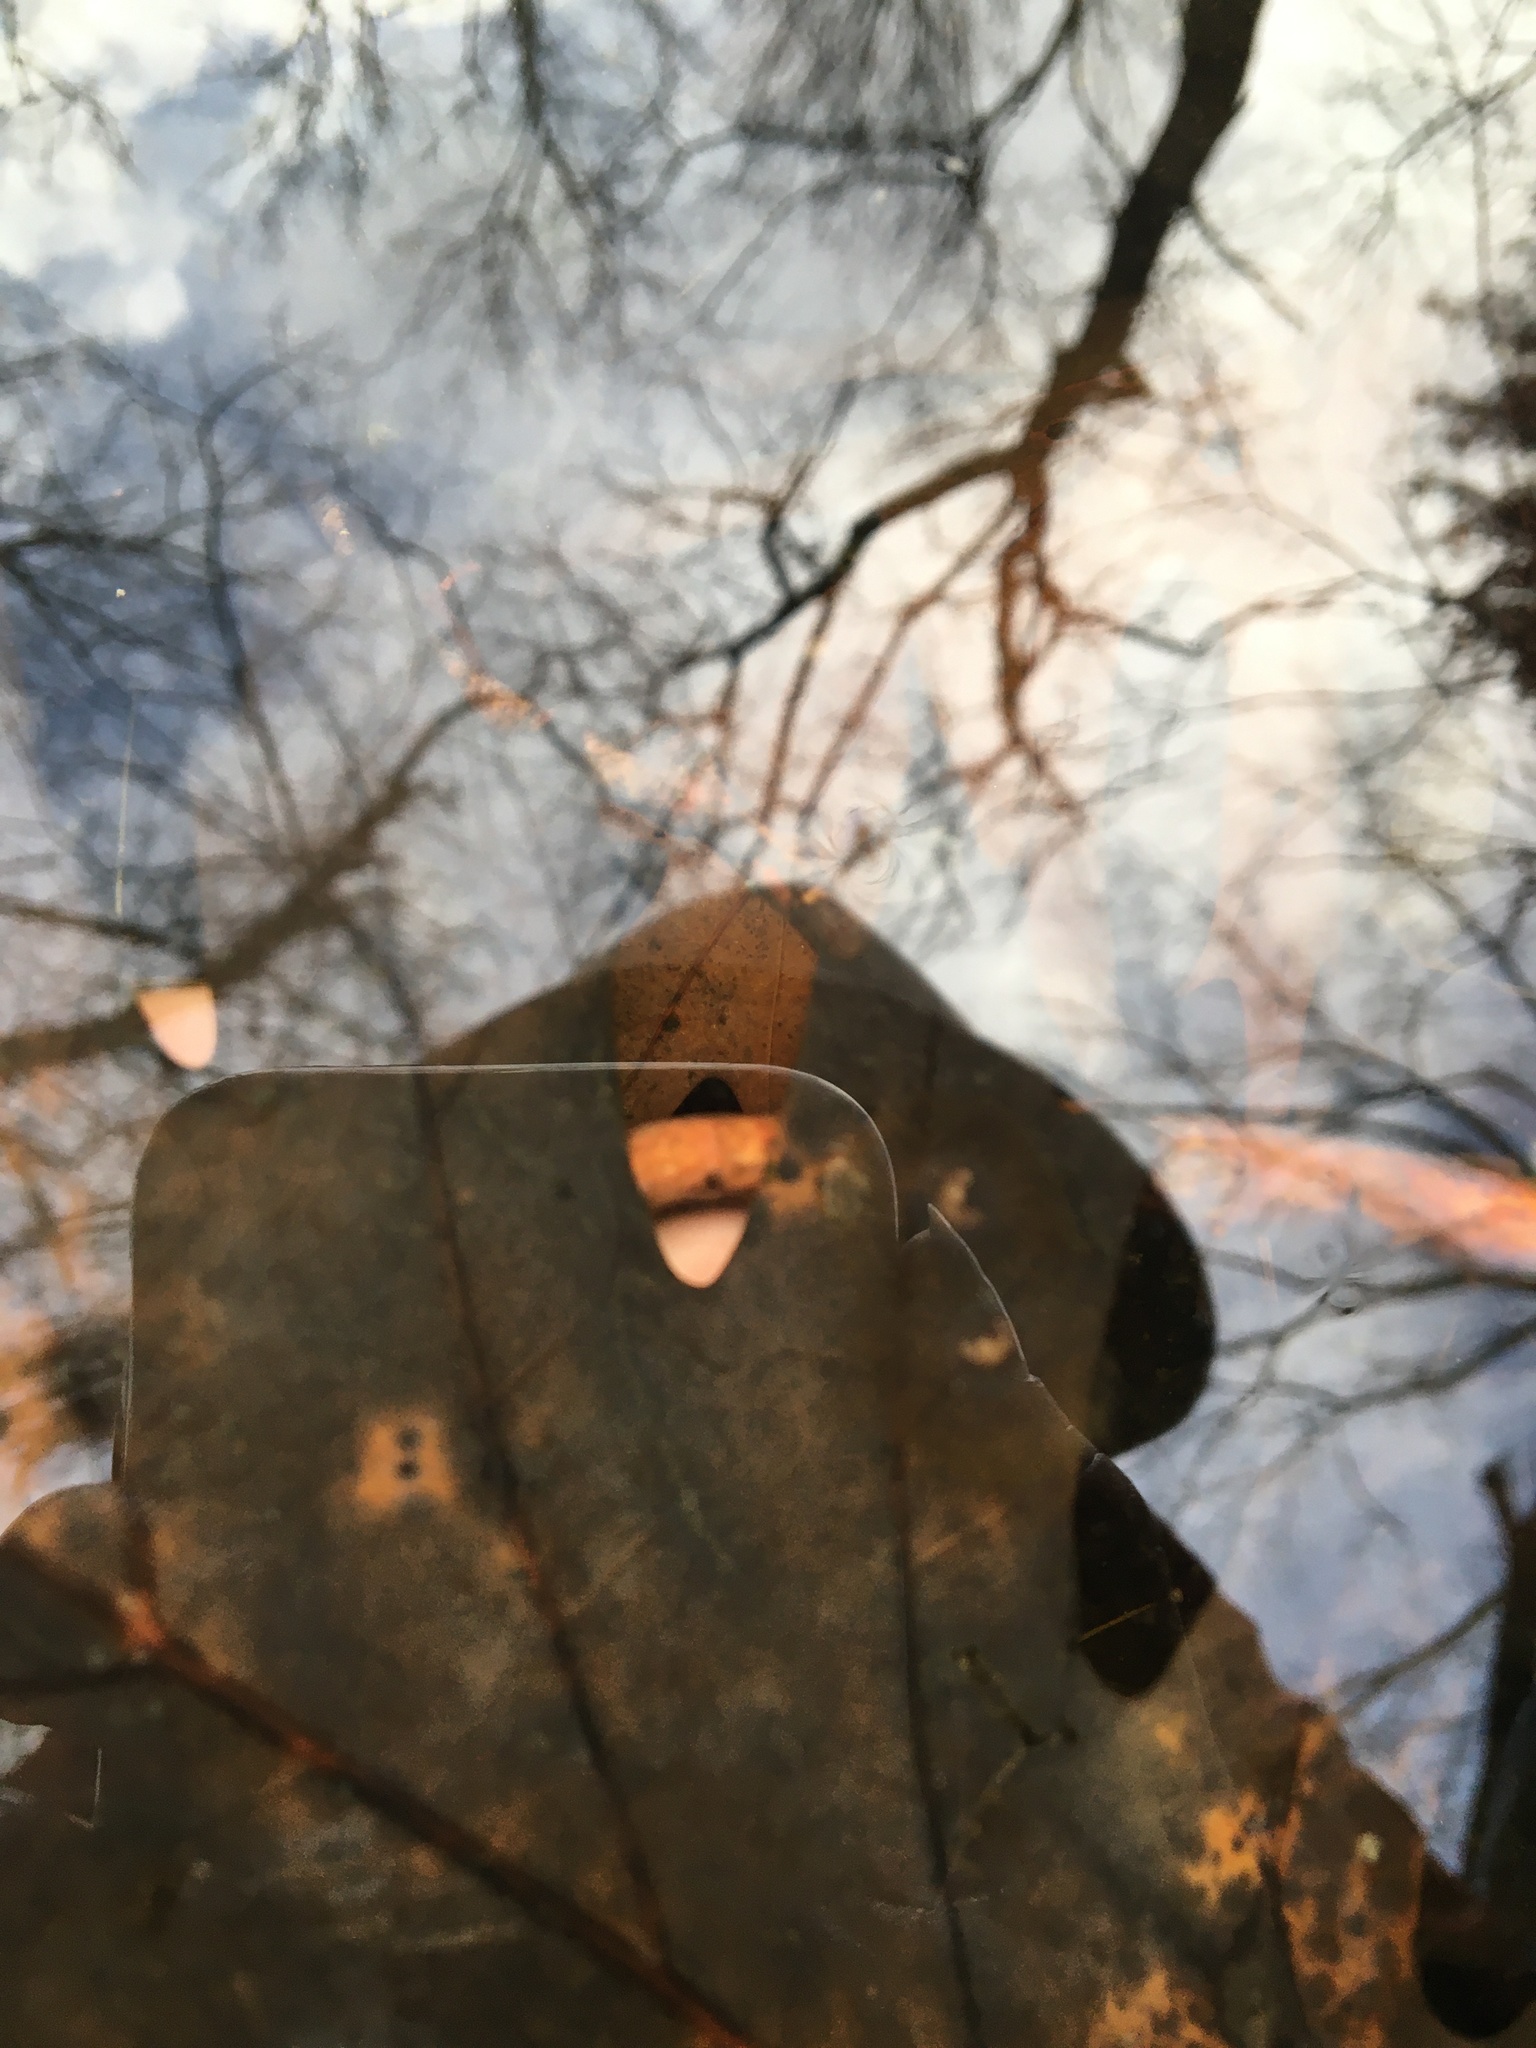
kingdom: Animalia
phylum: Chordata
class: Amphibia
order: Caudata
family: Ambystomatidae
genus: Ambystoma
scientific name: Ambystoma laterale
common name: Blue-spotted salamander
